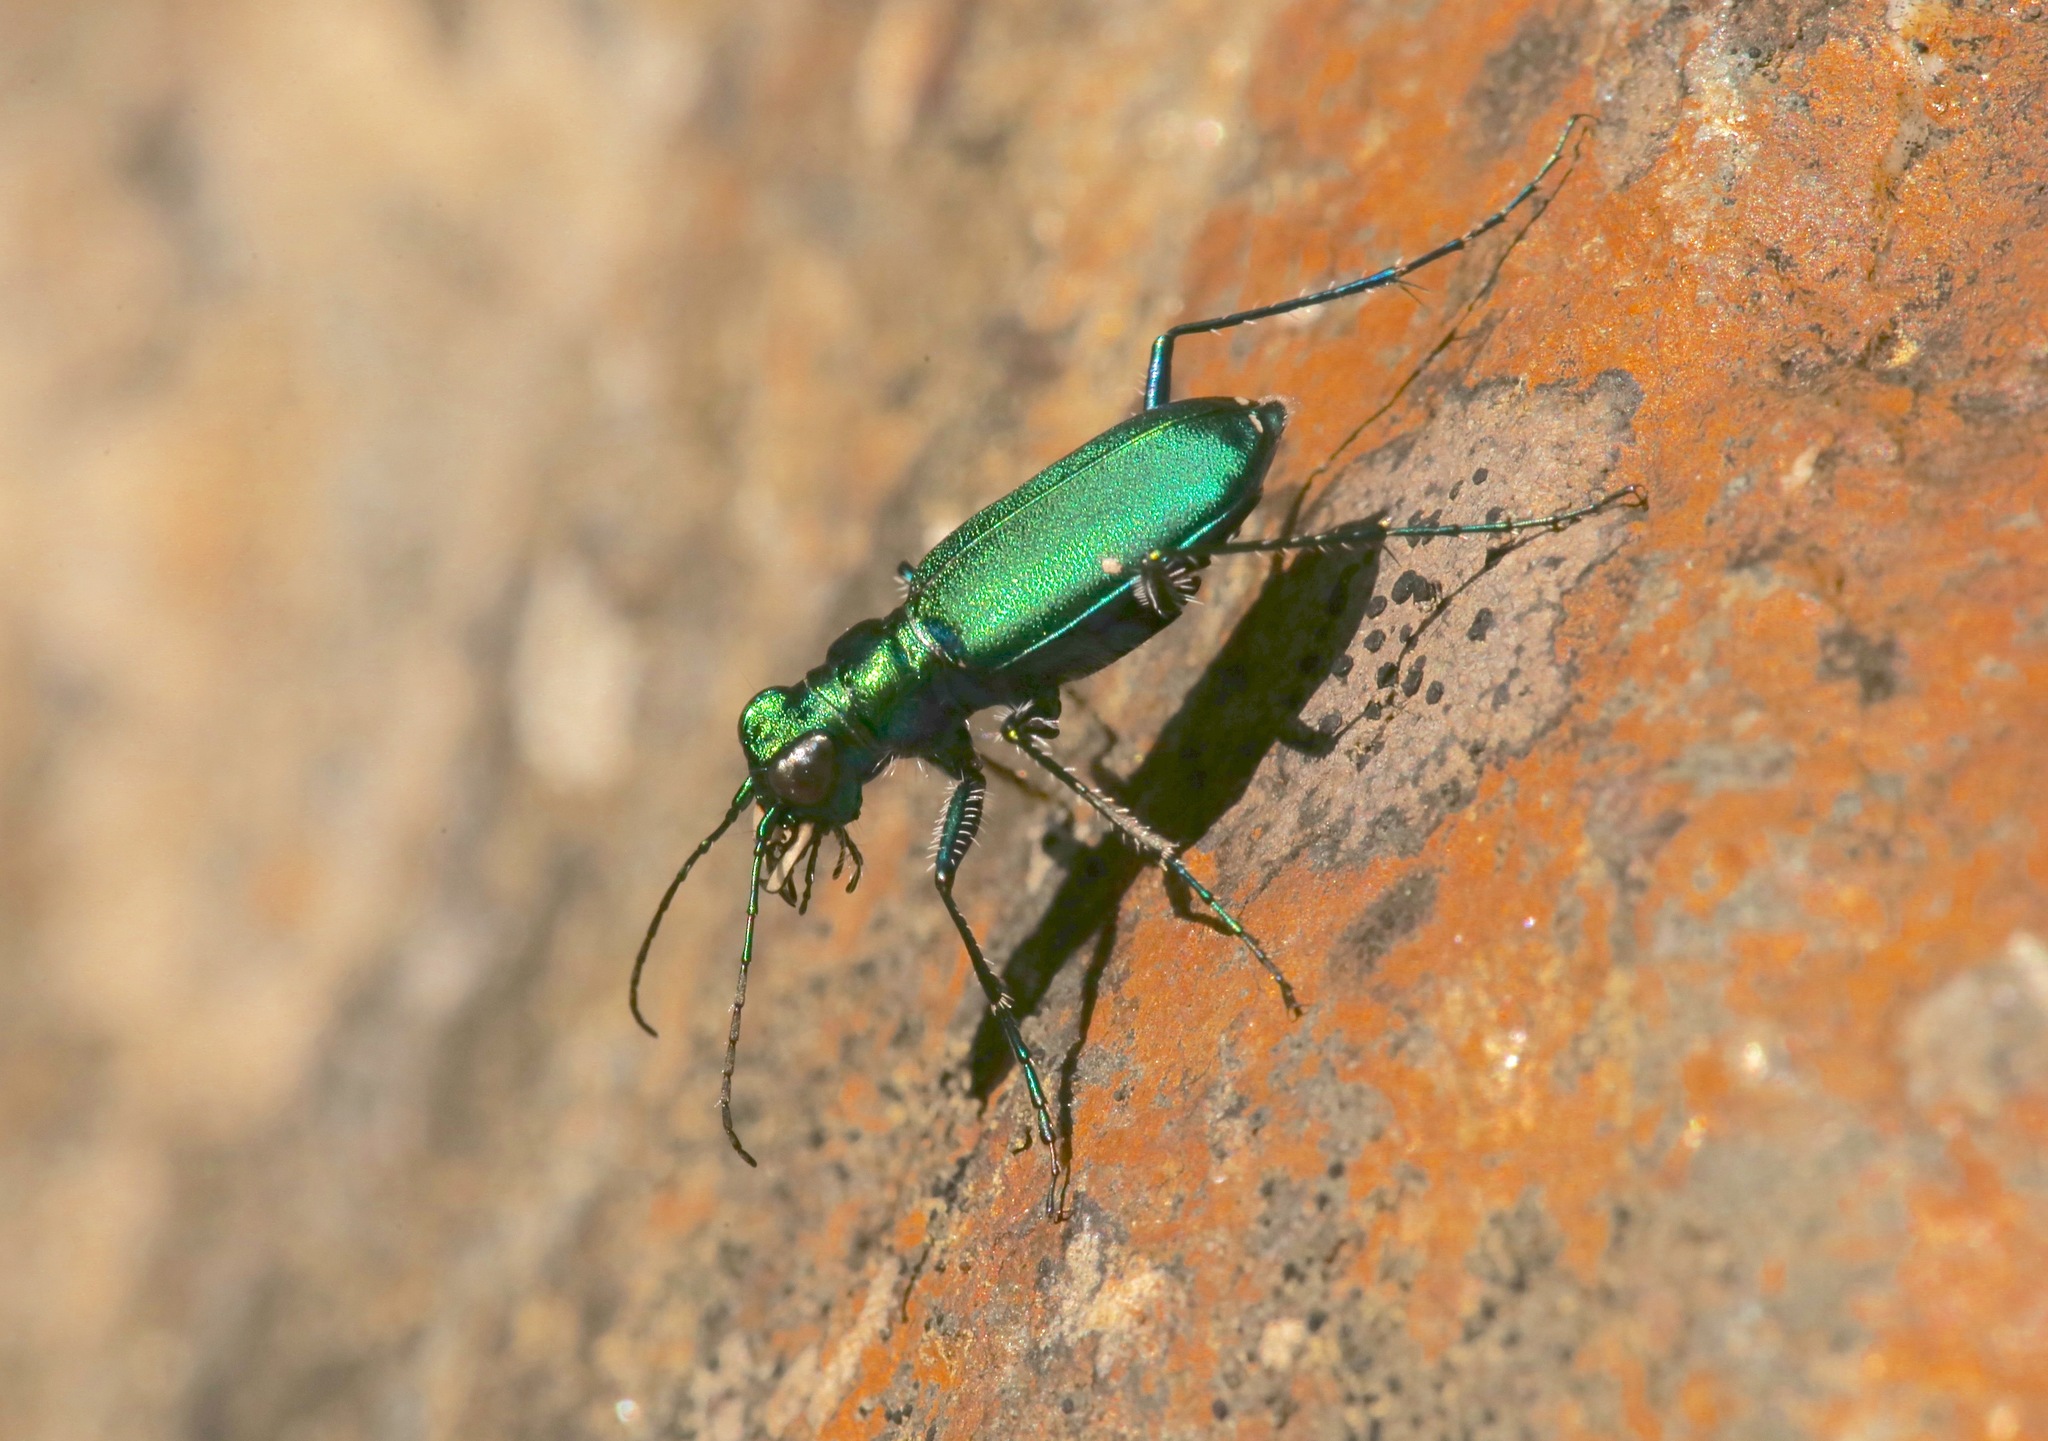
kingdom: Animalia
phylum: Arthropoda
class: Insecta
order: Coleoptera
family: Carabidae
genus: Cicindela
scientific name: Cicindela sexguttata
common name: Six-spotted tiger beetle
